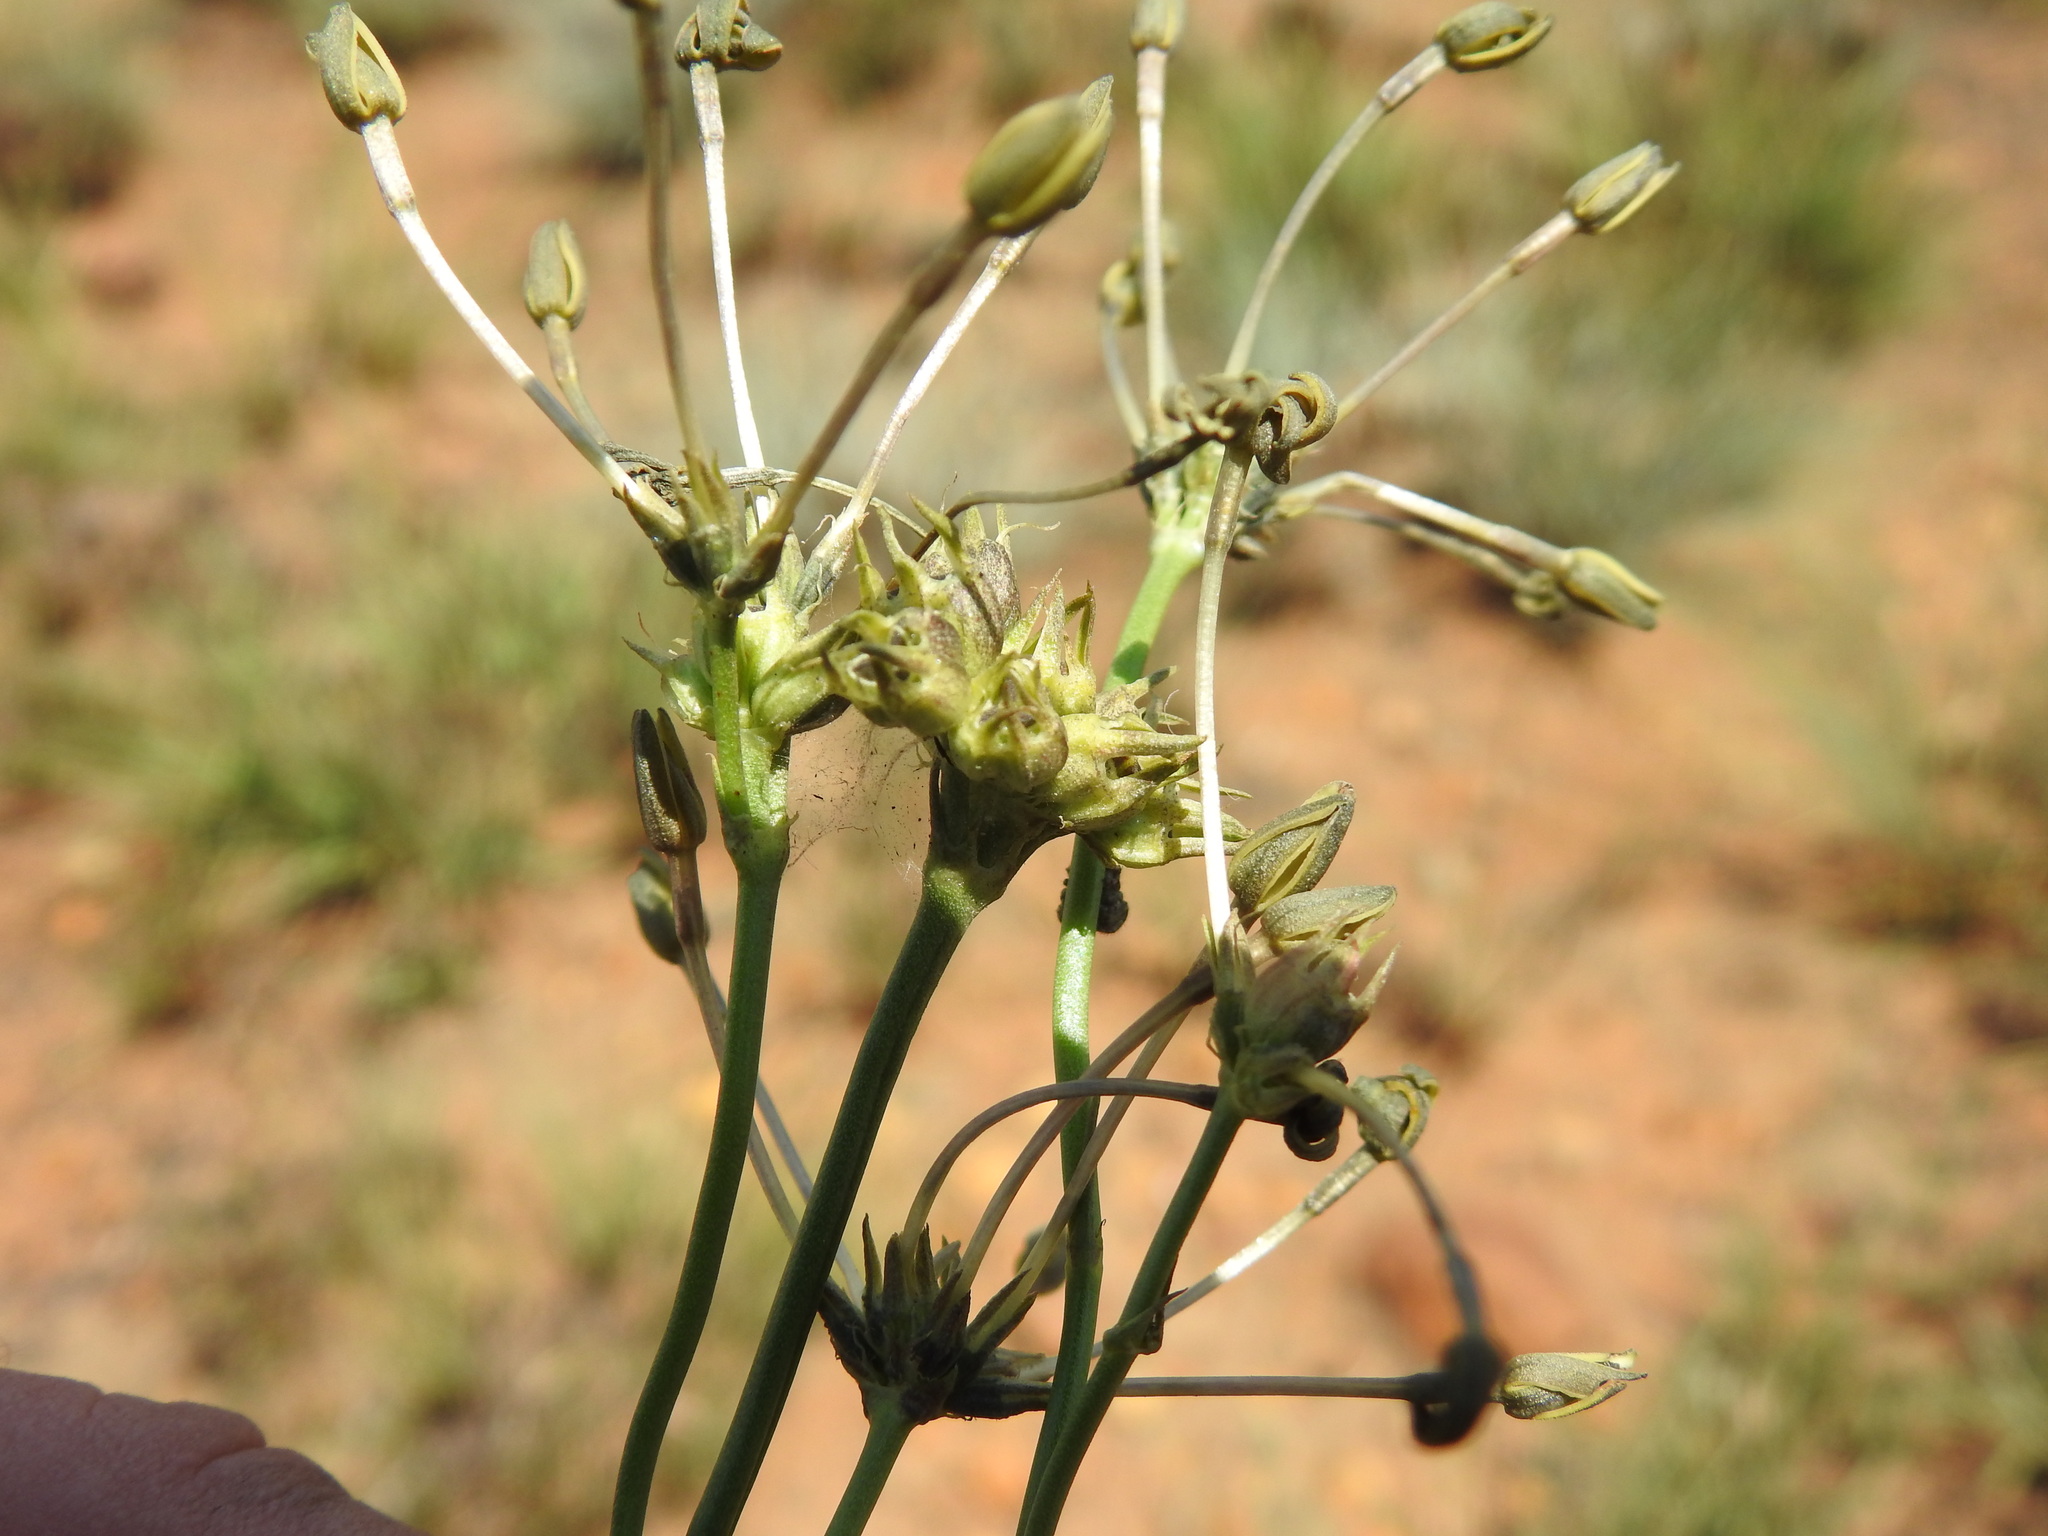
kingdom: Plantae
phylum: Tracheophyta
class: Magnoliopsida
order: Gentianales
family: Rubiaceae
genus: Kohautia
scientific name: Kohautia amatymbica
